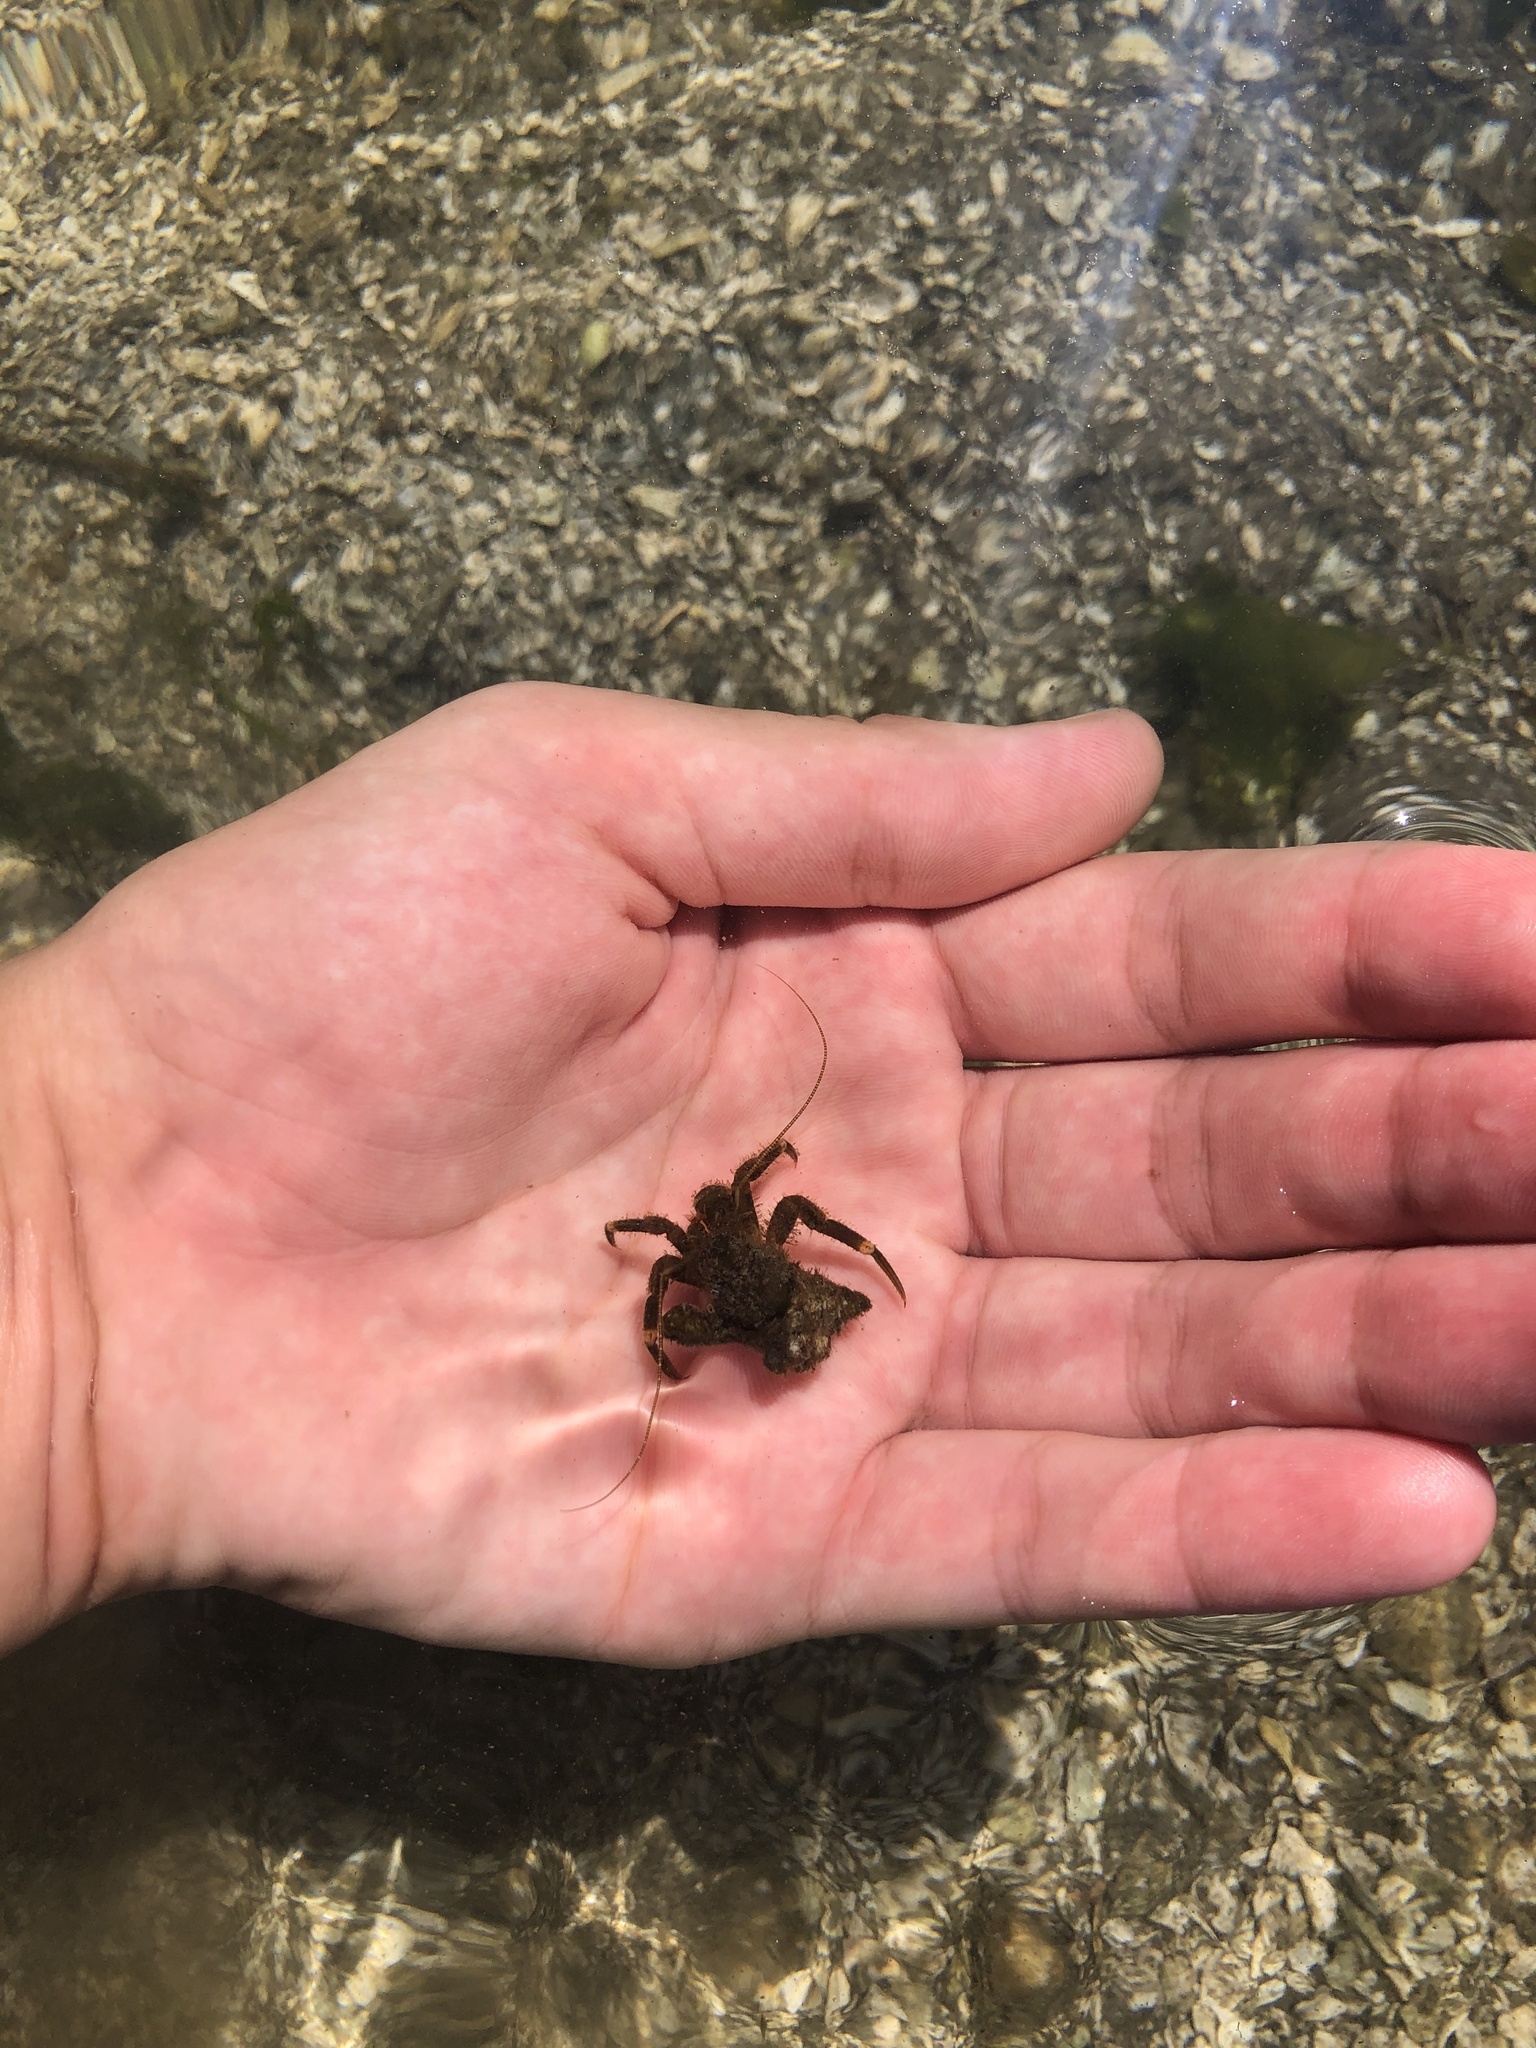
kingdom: Animalia
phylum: Arthropoda
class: Malacostraca
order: Decapoda
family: Paguridae
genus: Pagurus
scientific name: Pagurus hirsutiusculus
